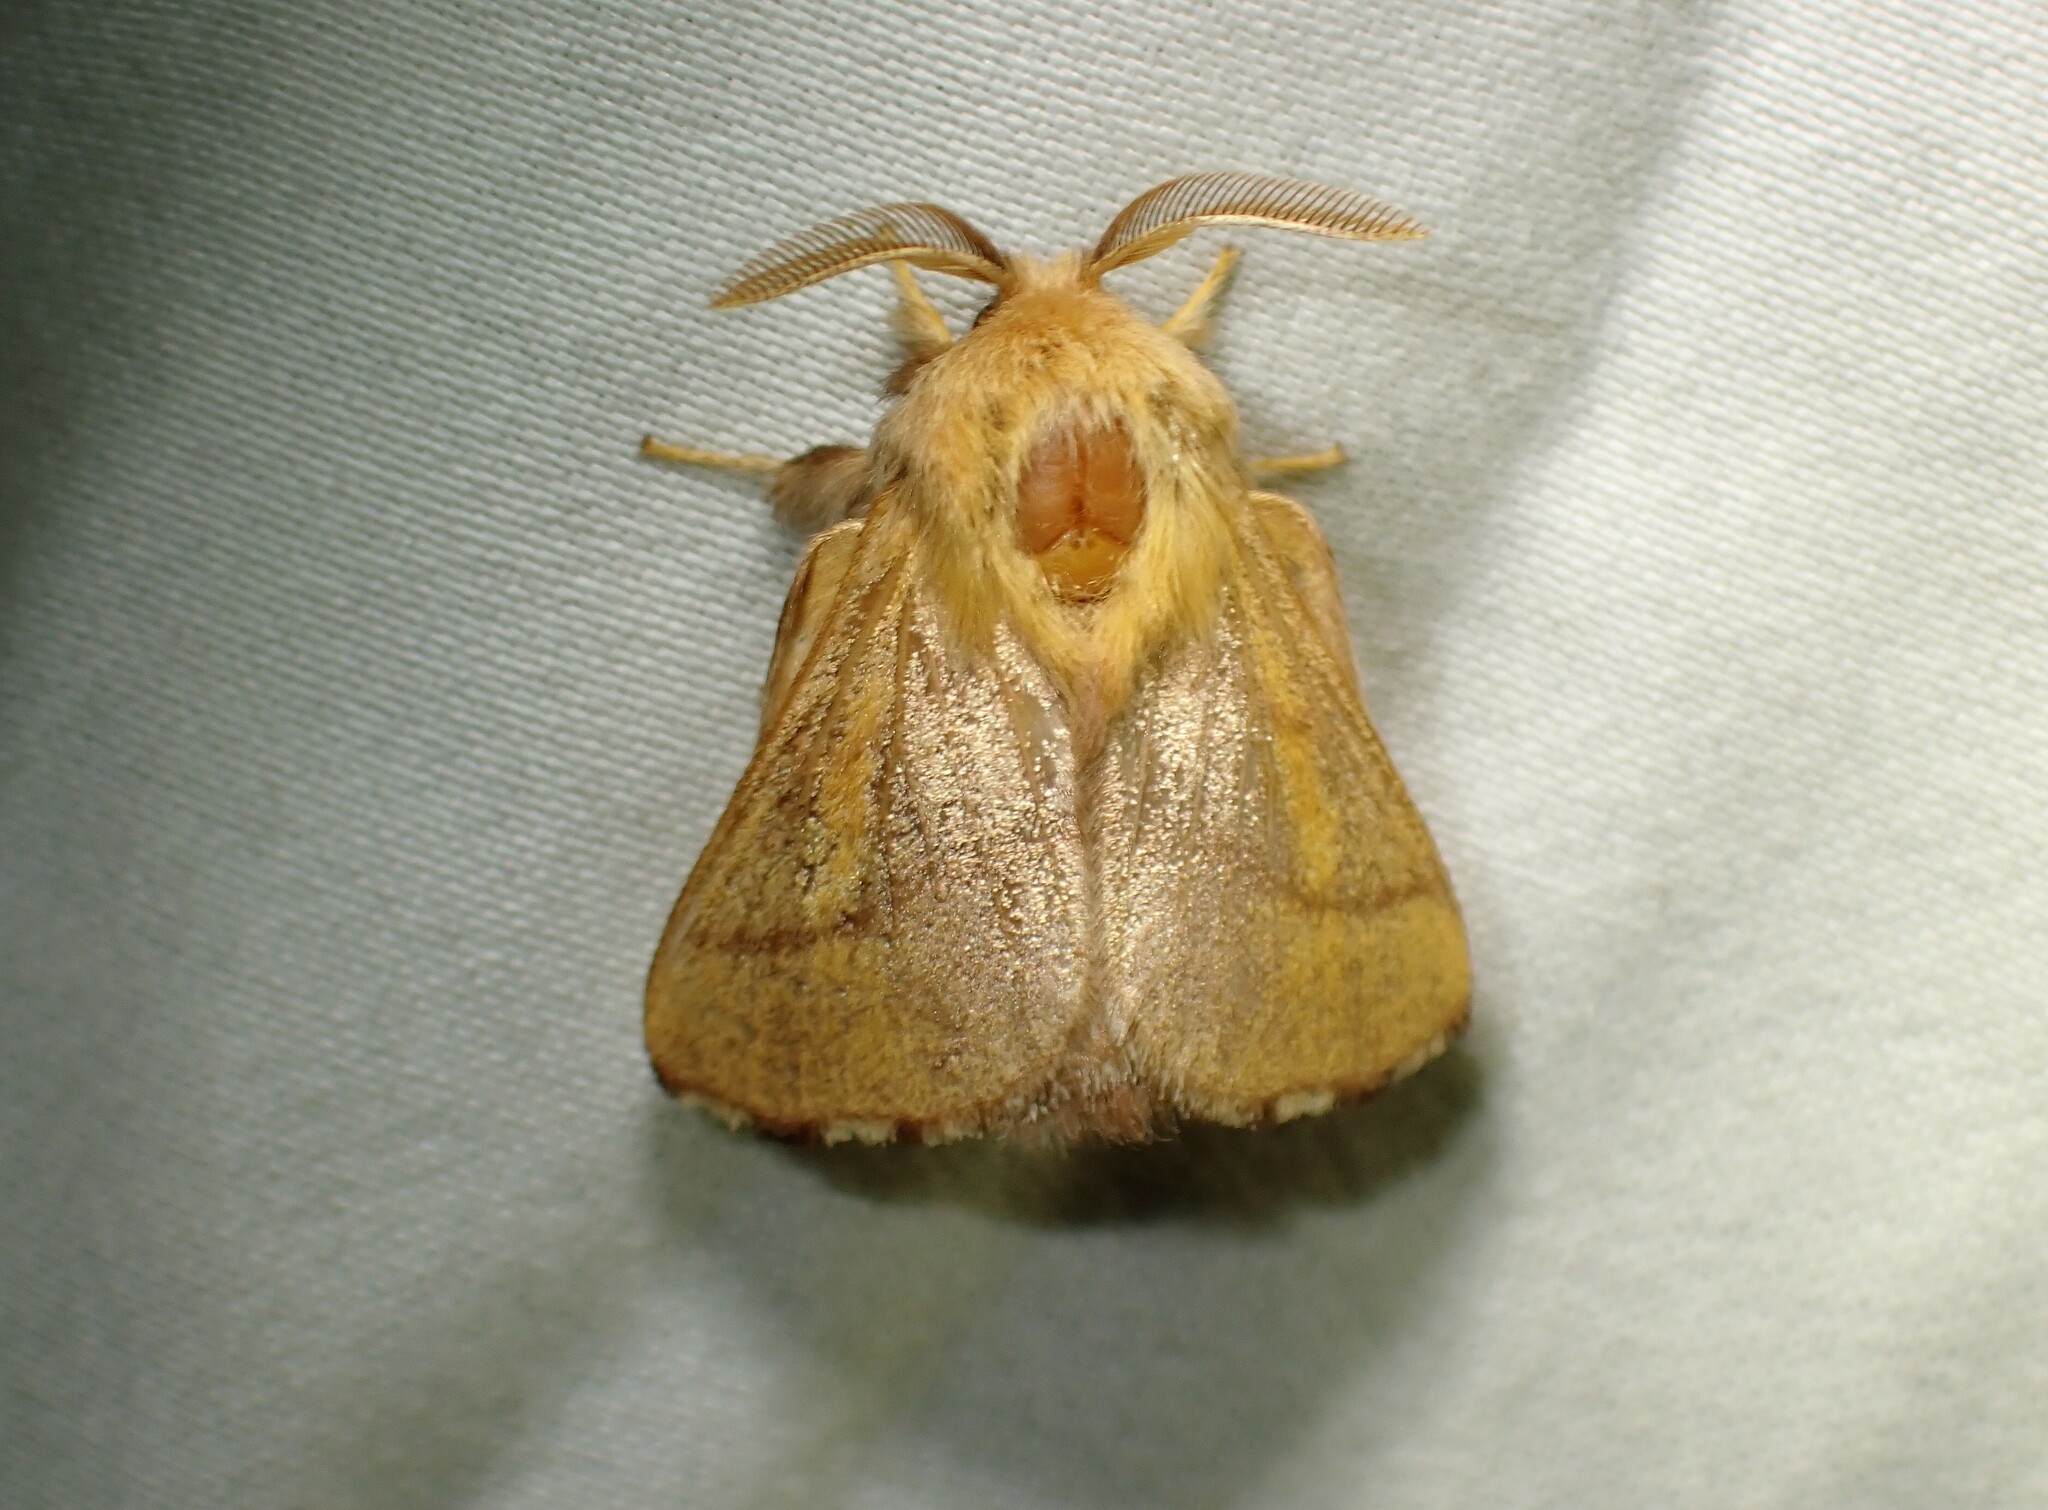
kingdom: Animalia
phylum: Arthropoda
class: Insecta
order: Lepidoptera
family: Lasiocampidae
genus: Malacosoma
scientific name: Malacosoma disstria
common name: Forest tent caterpillar
